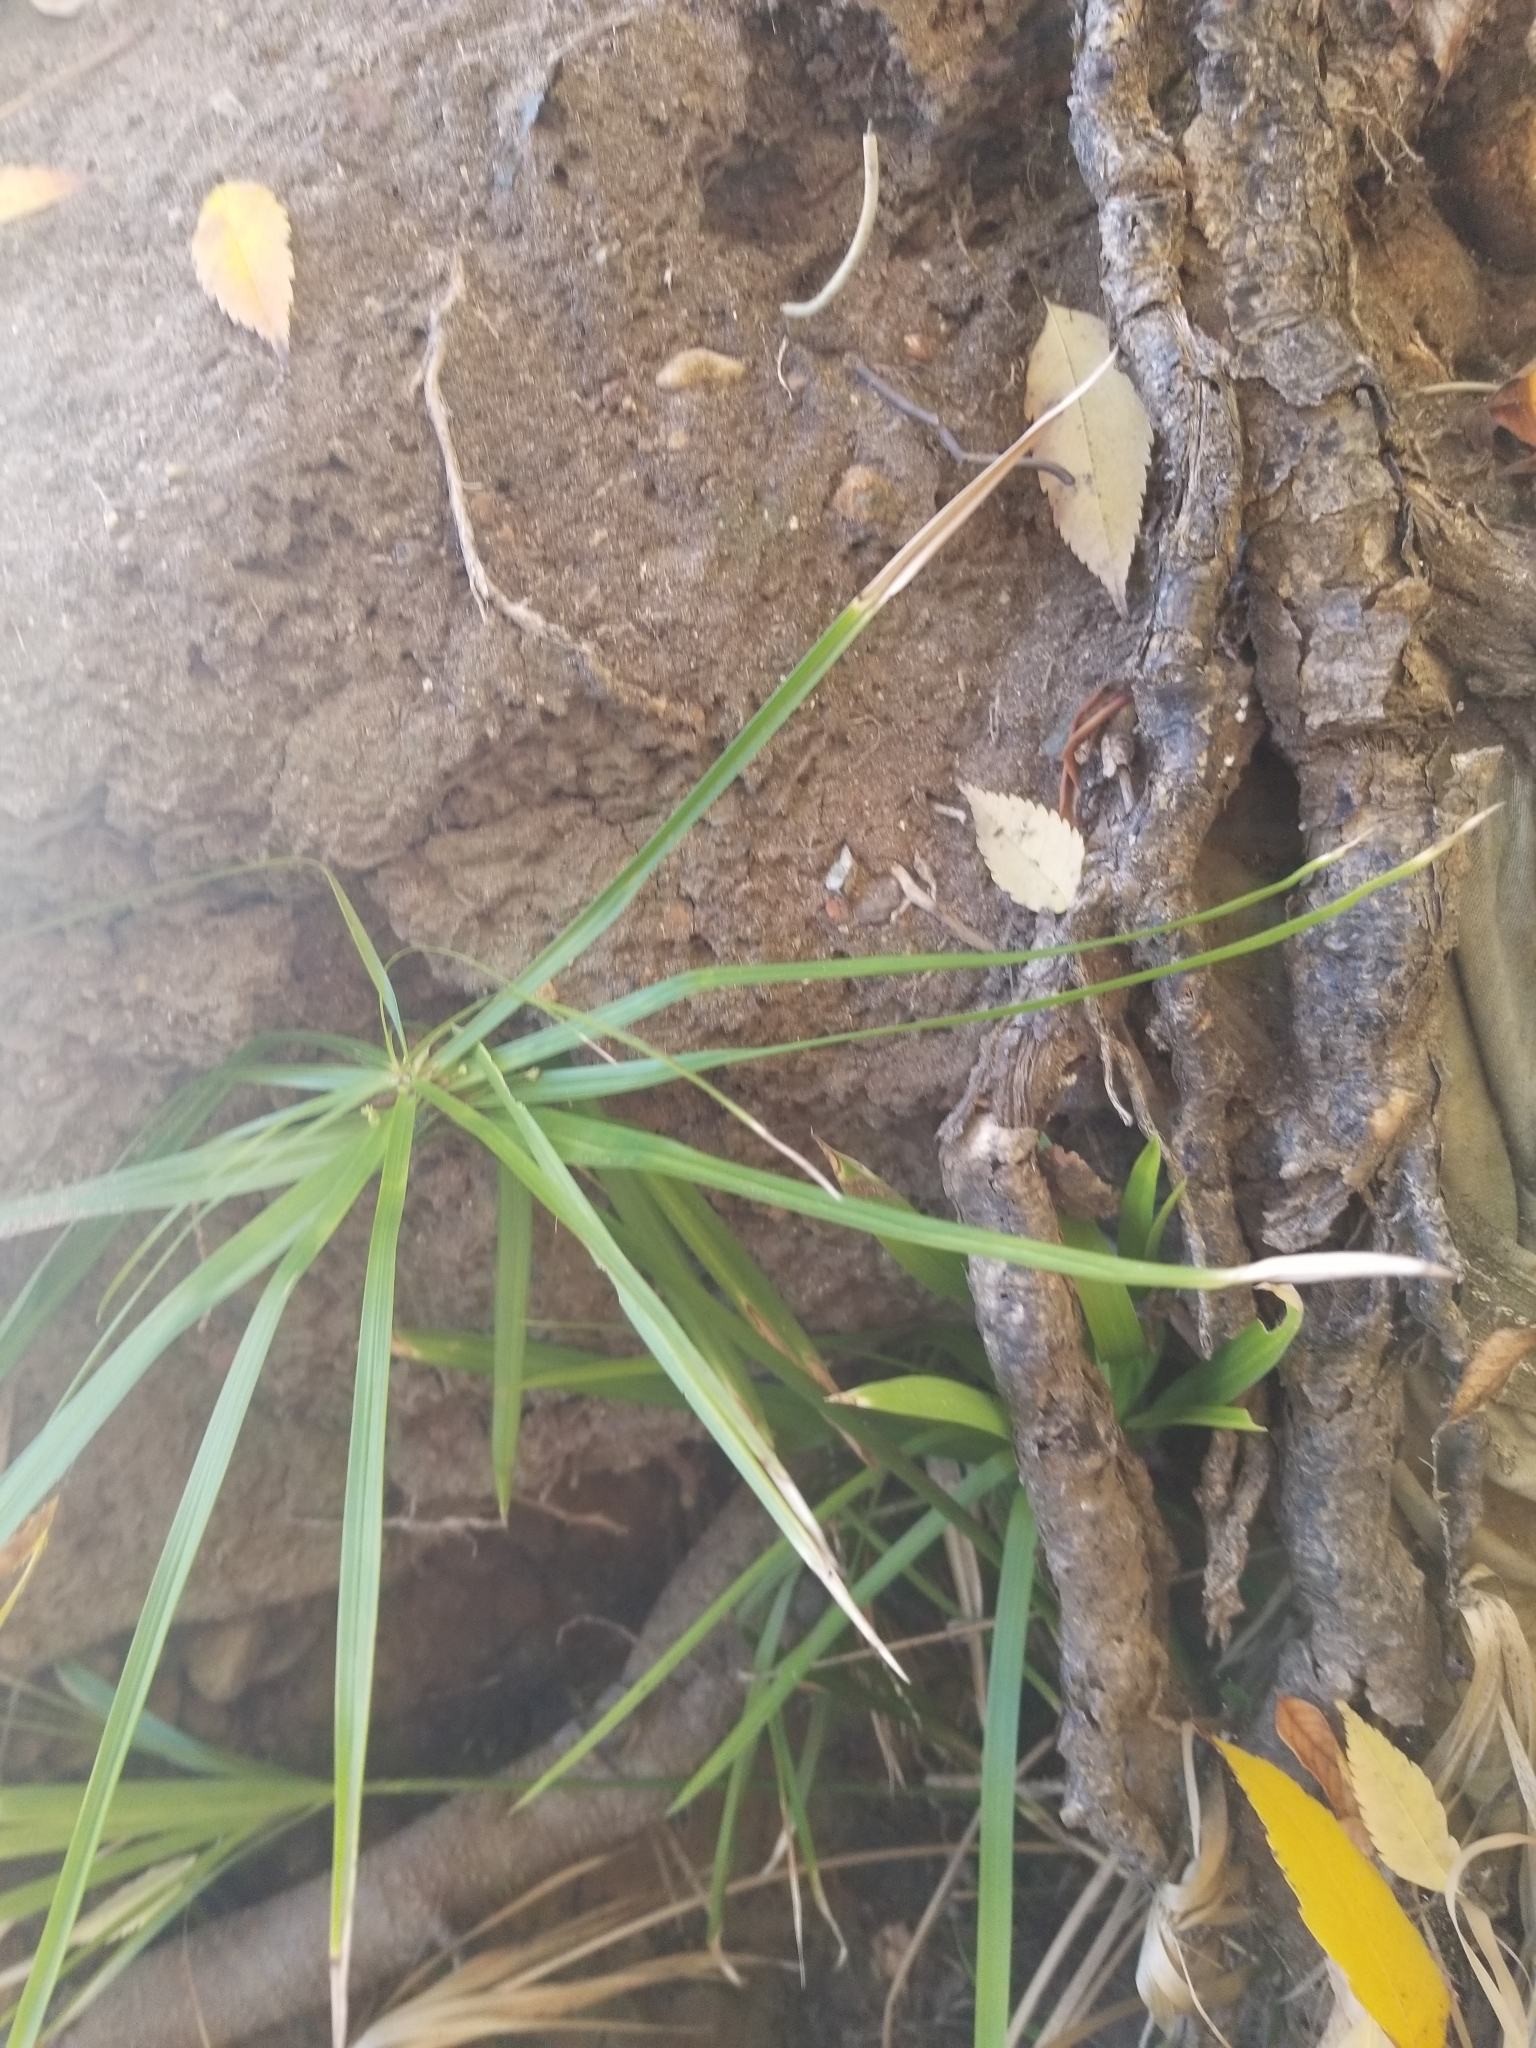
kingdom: Plantae
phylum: Tracheophyta
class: Liliopsida
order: Poales
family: Cyperaceae
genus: Cyperus
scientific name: Cyperus alternifolius
